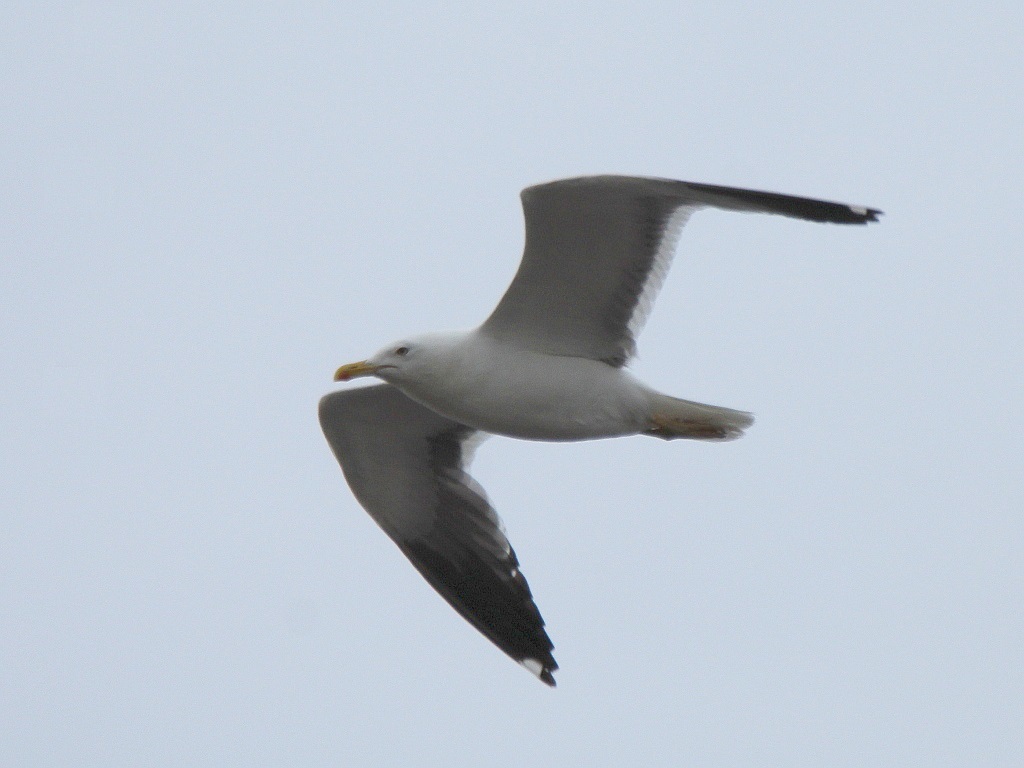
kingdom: Animalia
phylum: Chordata
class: Aves
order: Charadriiformes
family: Laridae
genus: Larus
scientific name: Larus fuscus
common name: Lesser black-backed gull
